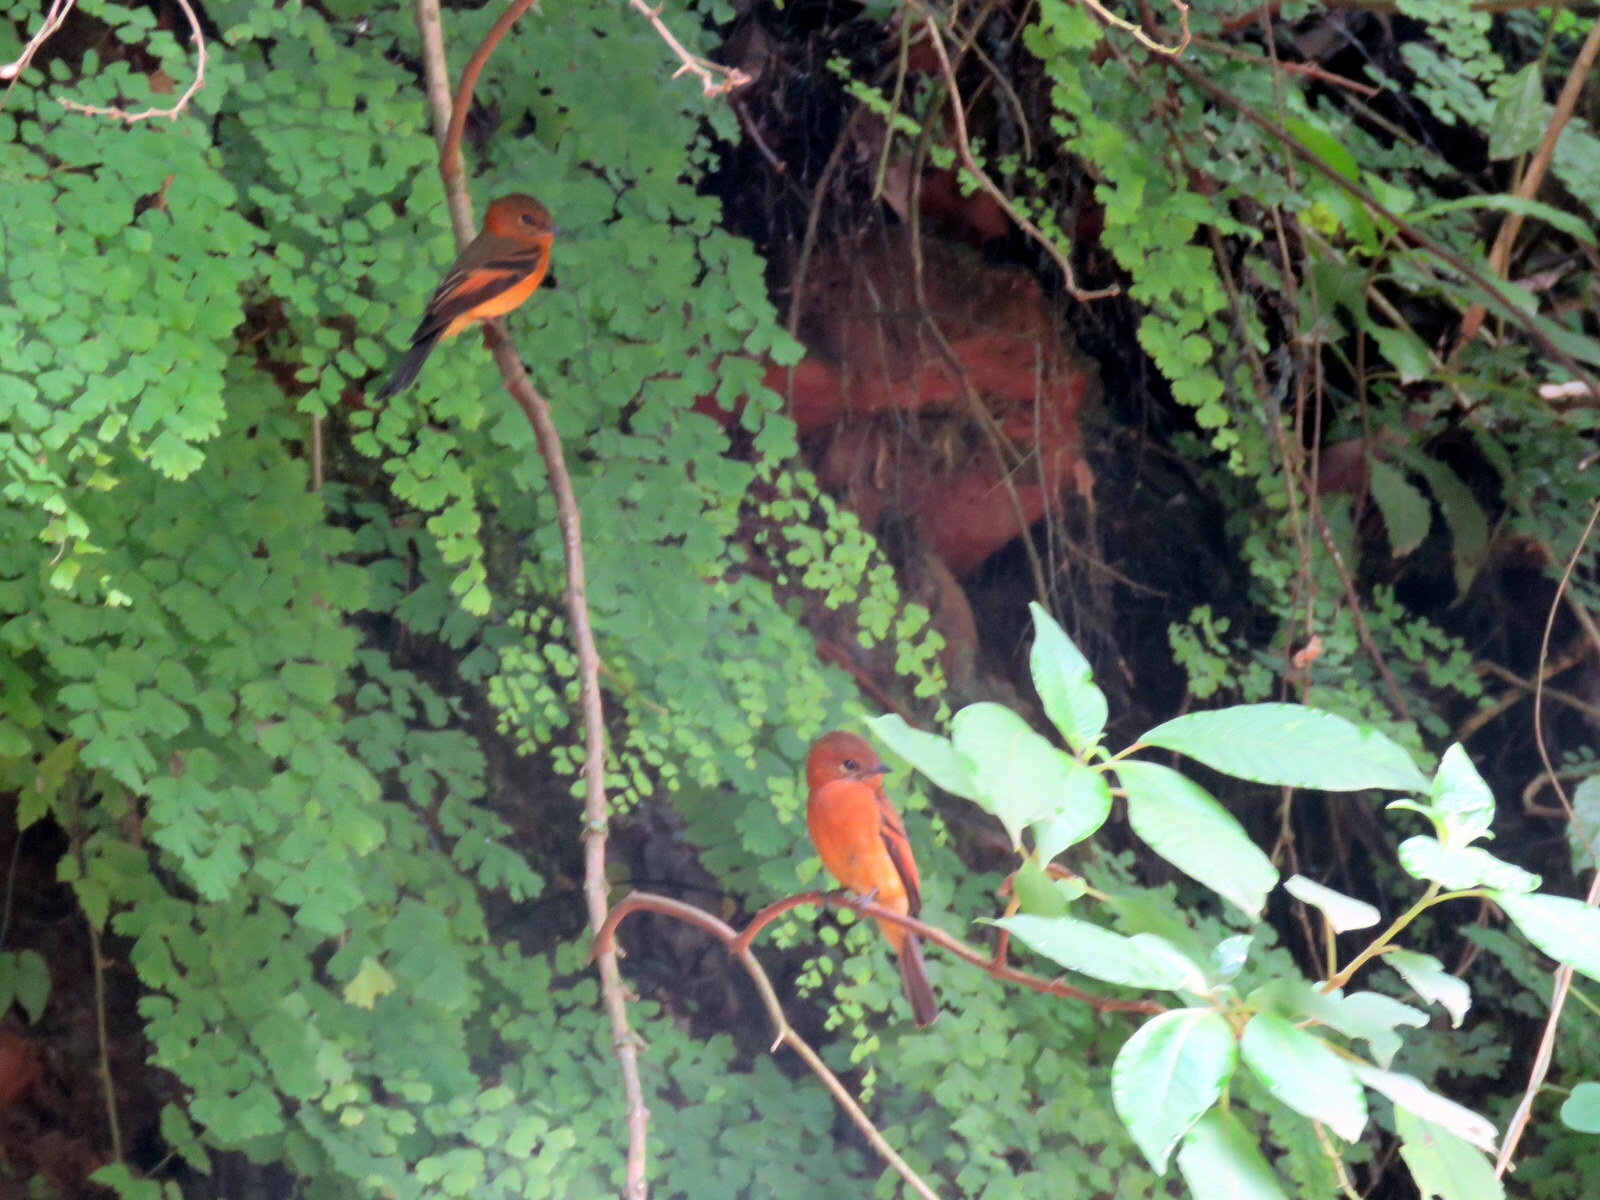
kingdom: Animalia
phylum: Chordata
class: Aves
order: Passeriformes
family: Tyrannidae
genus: Pyrrhomyias
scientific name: Pyrrhomyias cinnamomeus
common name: Cinnamon flycatcher
